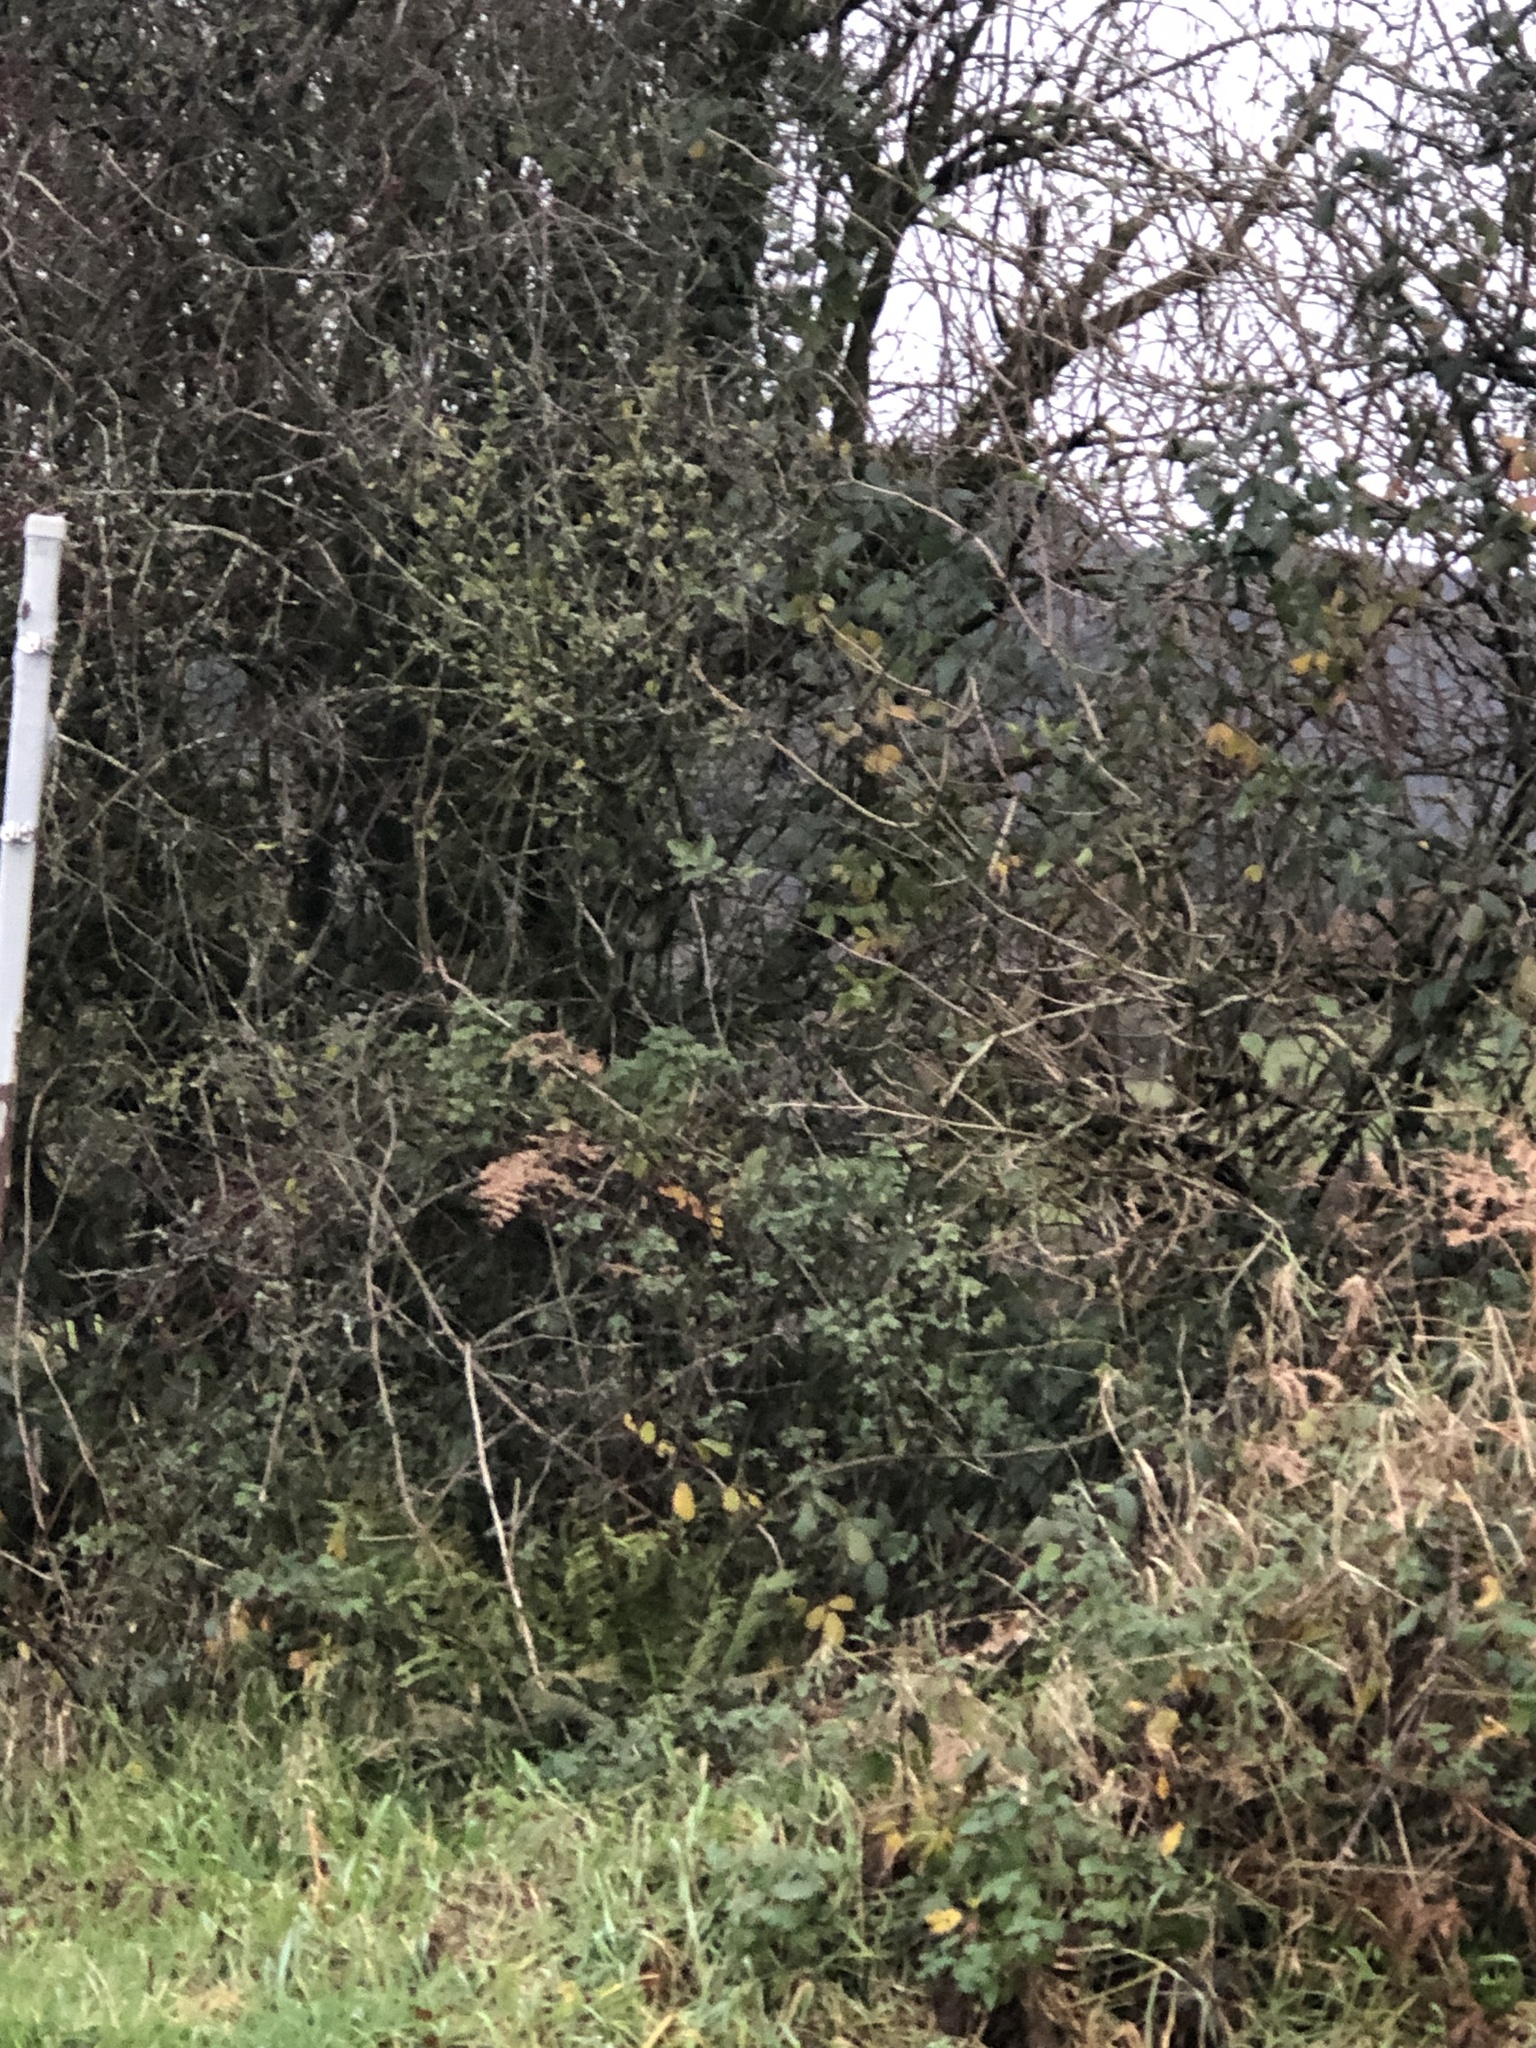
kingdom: Animalia
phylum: Chordata
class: Aves
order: Passeriformes
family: Muscicapidae
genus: Erithacus
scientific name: Erithacus rubecula
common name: European robin
